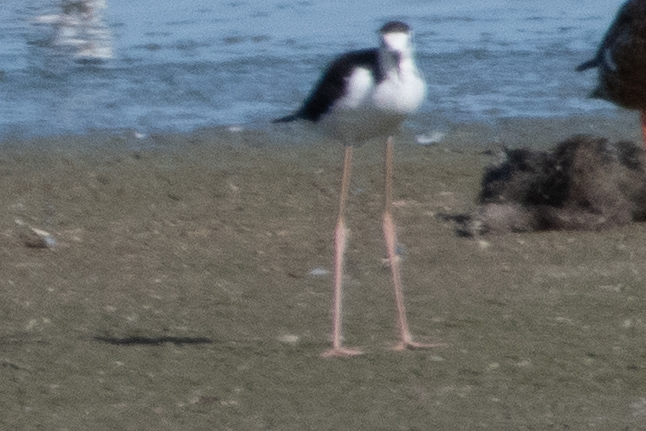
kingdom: Animalia
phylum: Chordata
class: Aves
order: Charadriiformes
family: Recurvirostridae
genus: Himantopus
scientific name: Himantopus mexicanus
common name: Black-necked stilt
